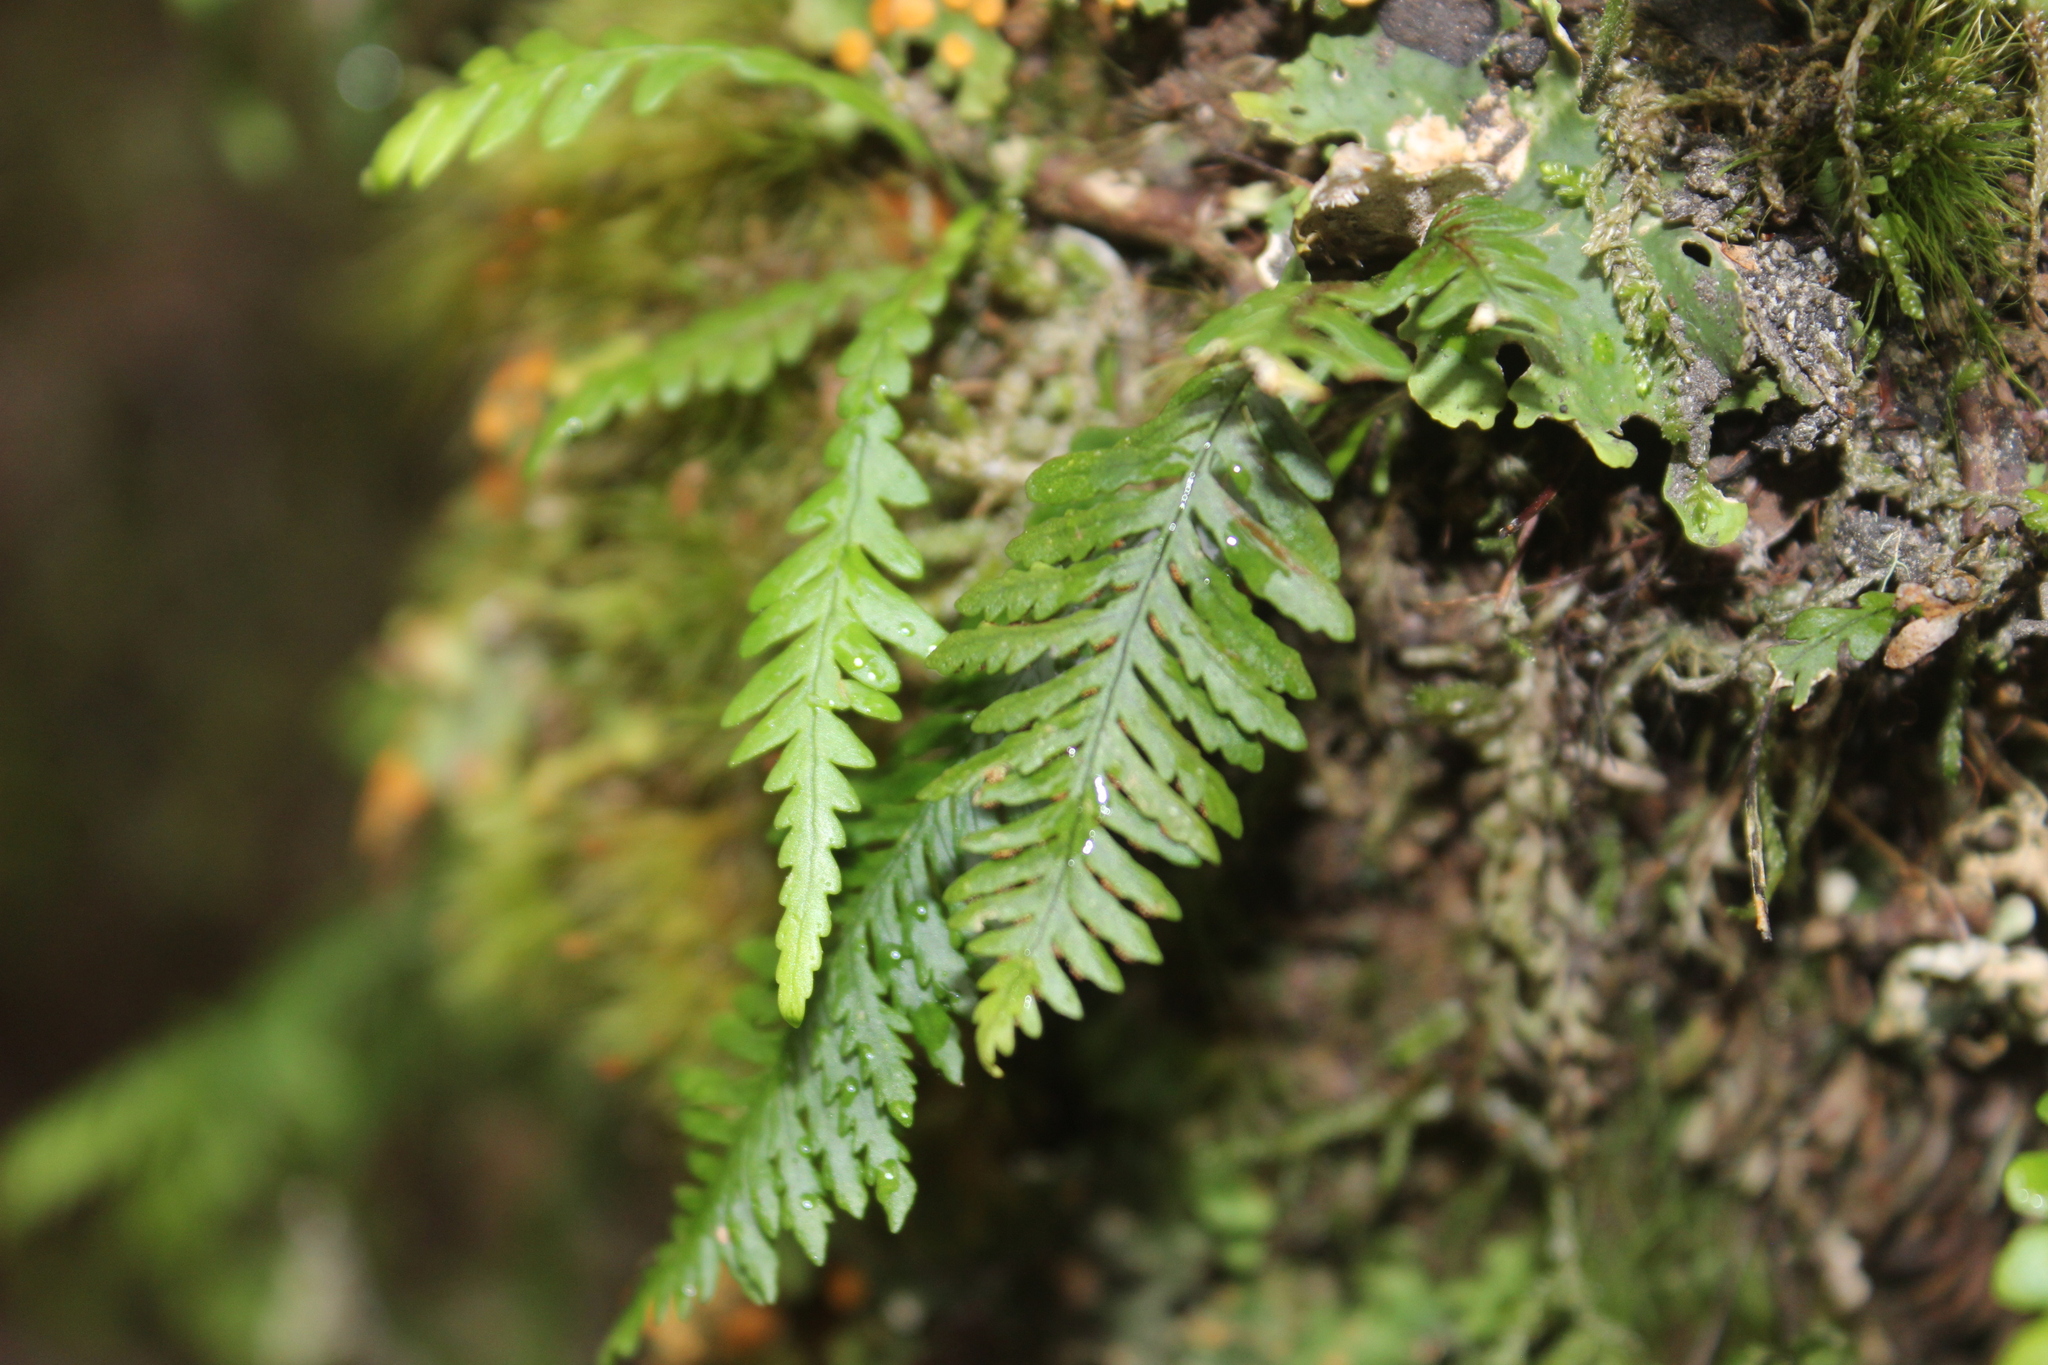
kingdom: Plantae
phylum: Tracheophyta
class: Polypodiopsida
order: Polypodiales
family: Polypodiaceae
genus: Notogrammitis
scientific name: Notogrammitis heterophylla
